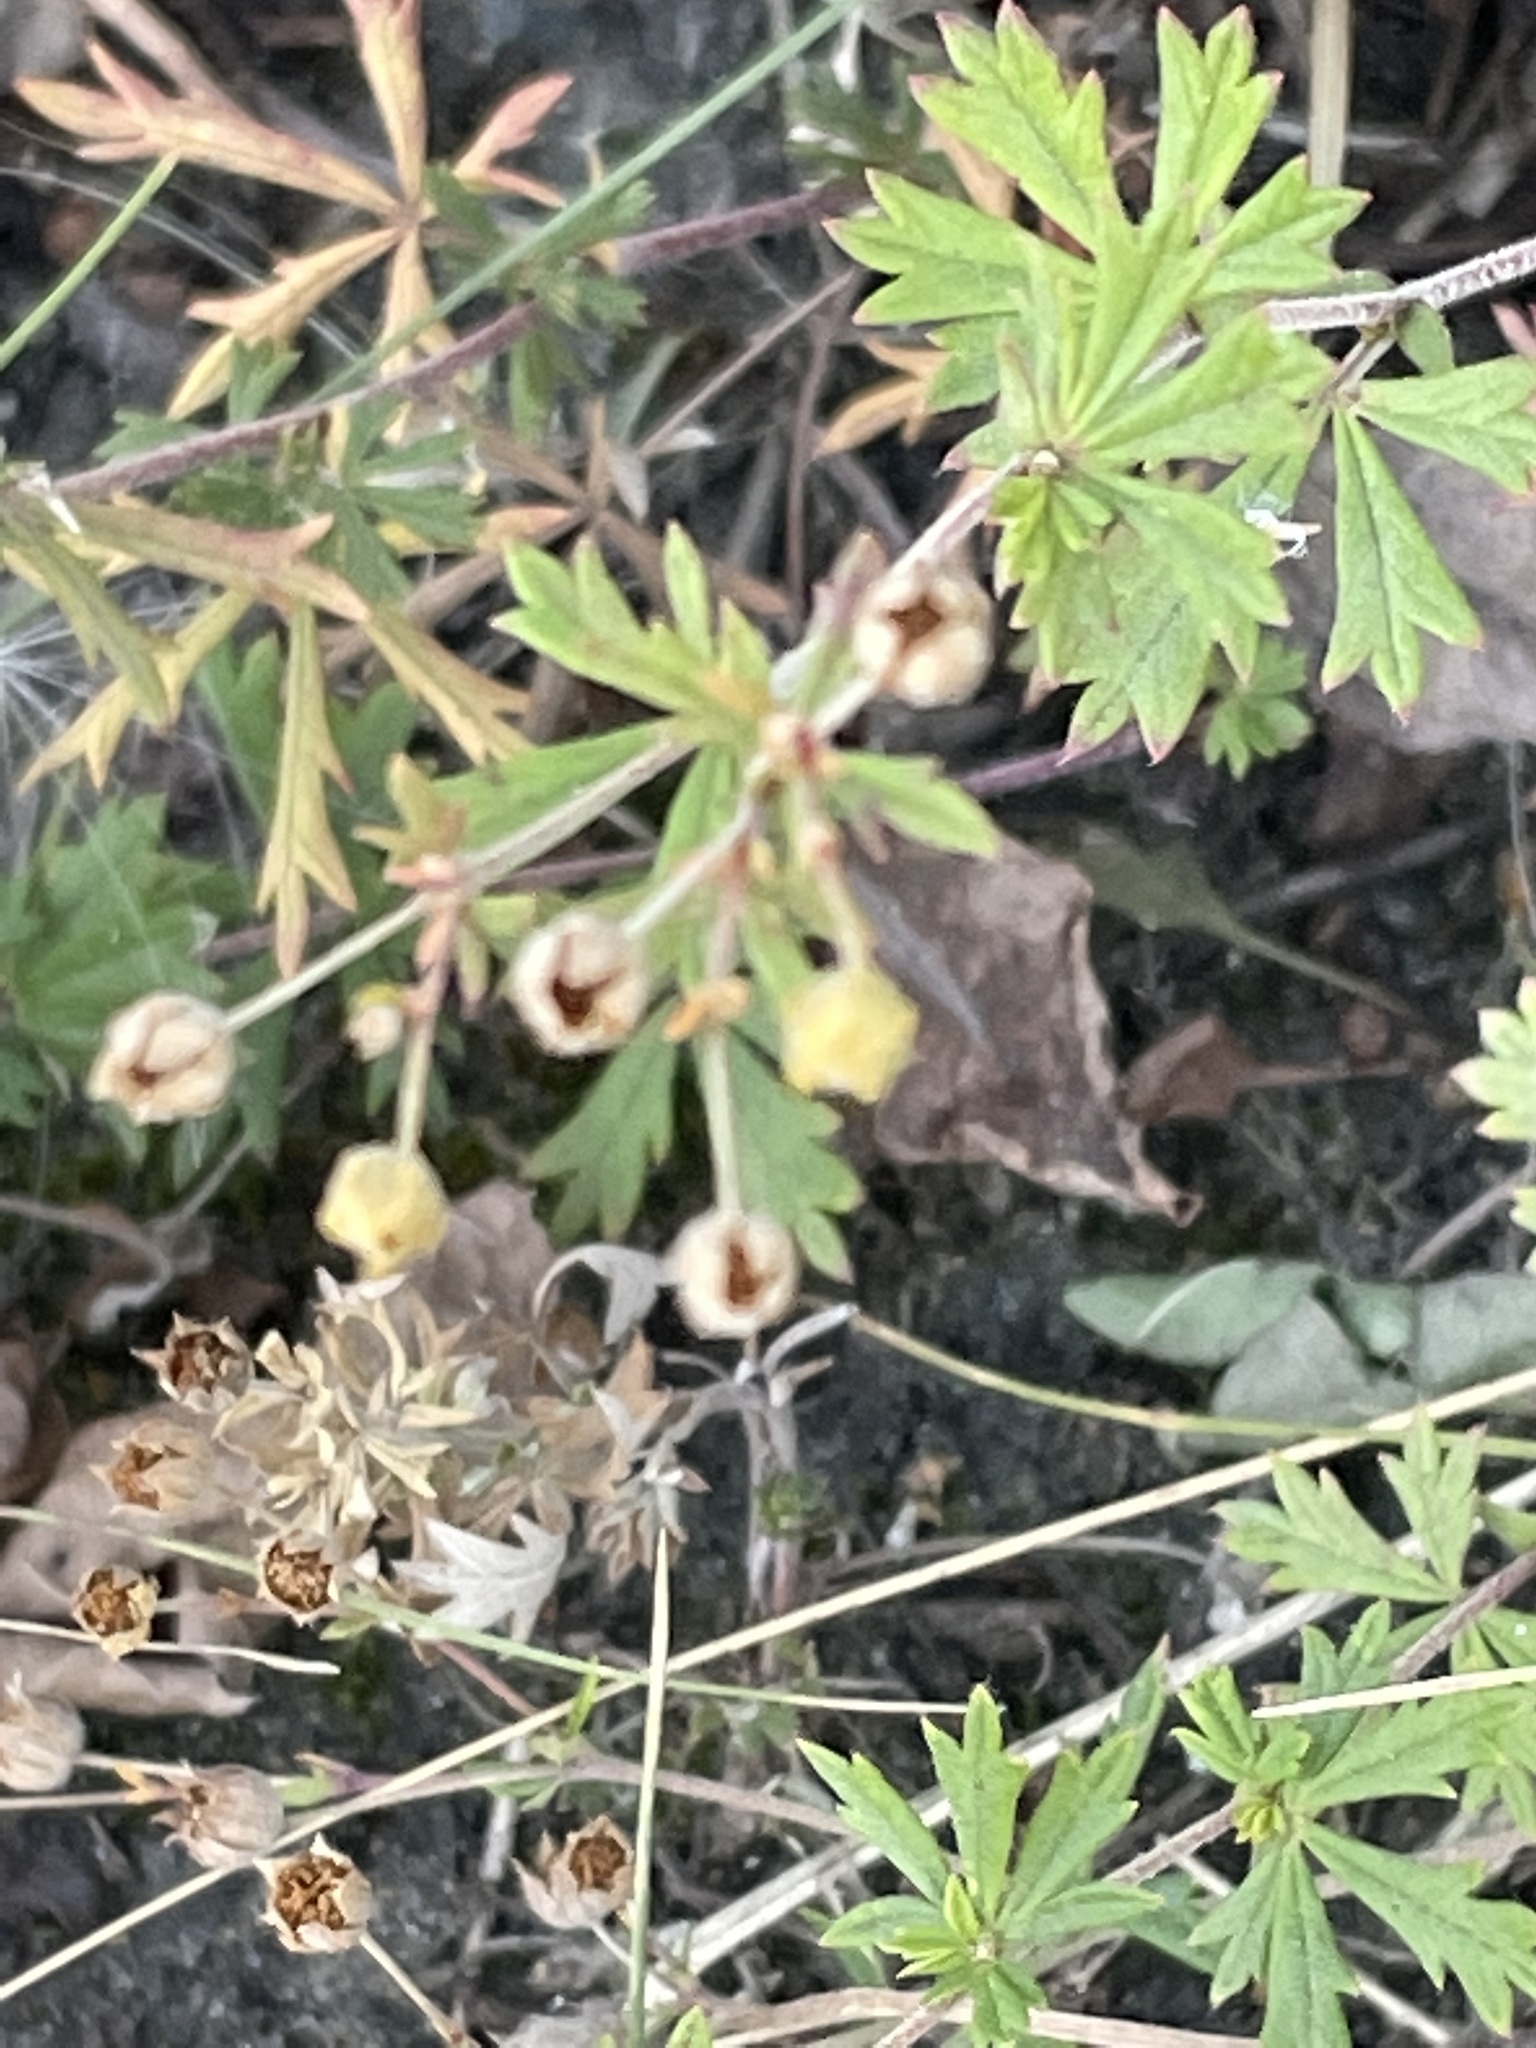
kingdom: Plantae
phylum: Tracheophyta
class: Magnoliopsida
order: Rosales
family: Rosaceae
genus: Potentilla
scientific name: Potentilla argentea
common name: Hoary cinquefoil
